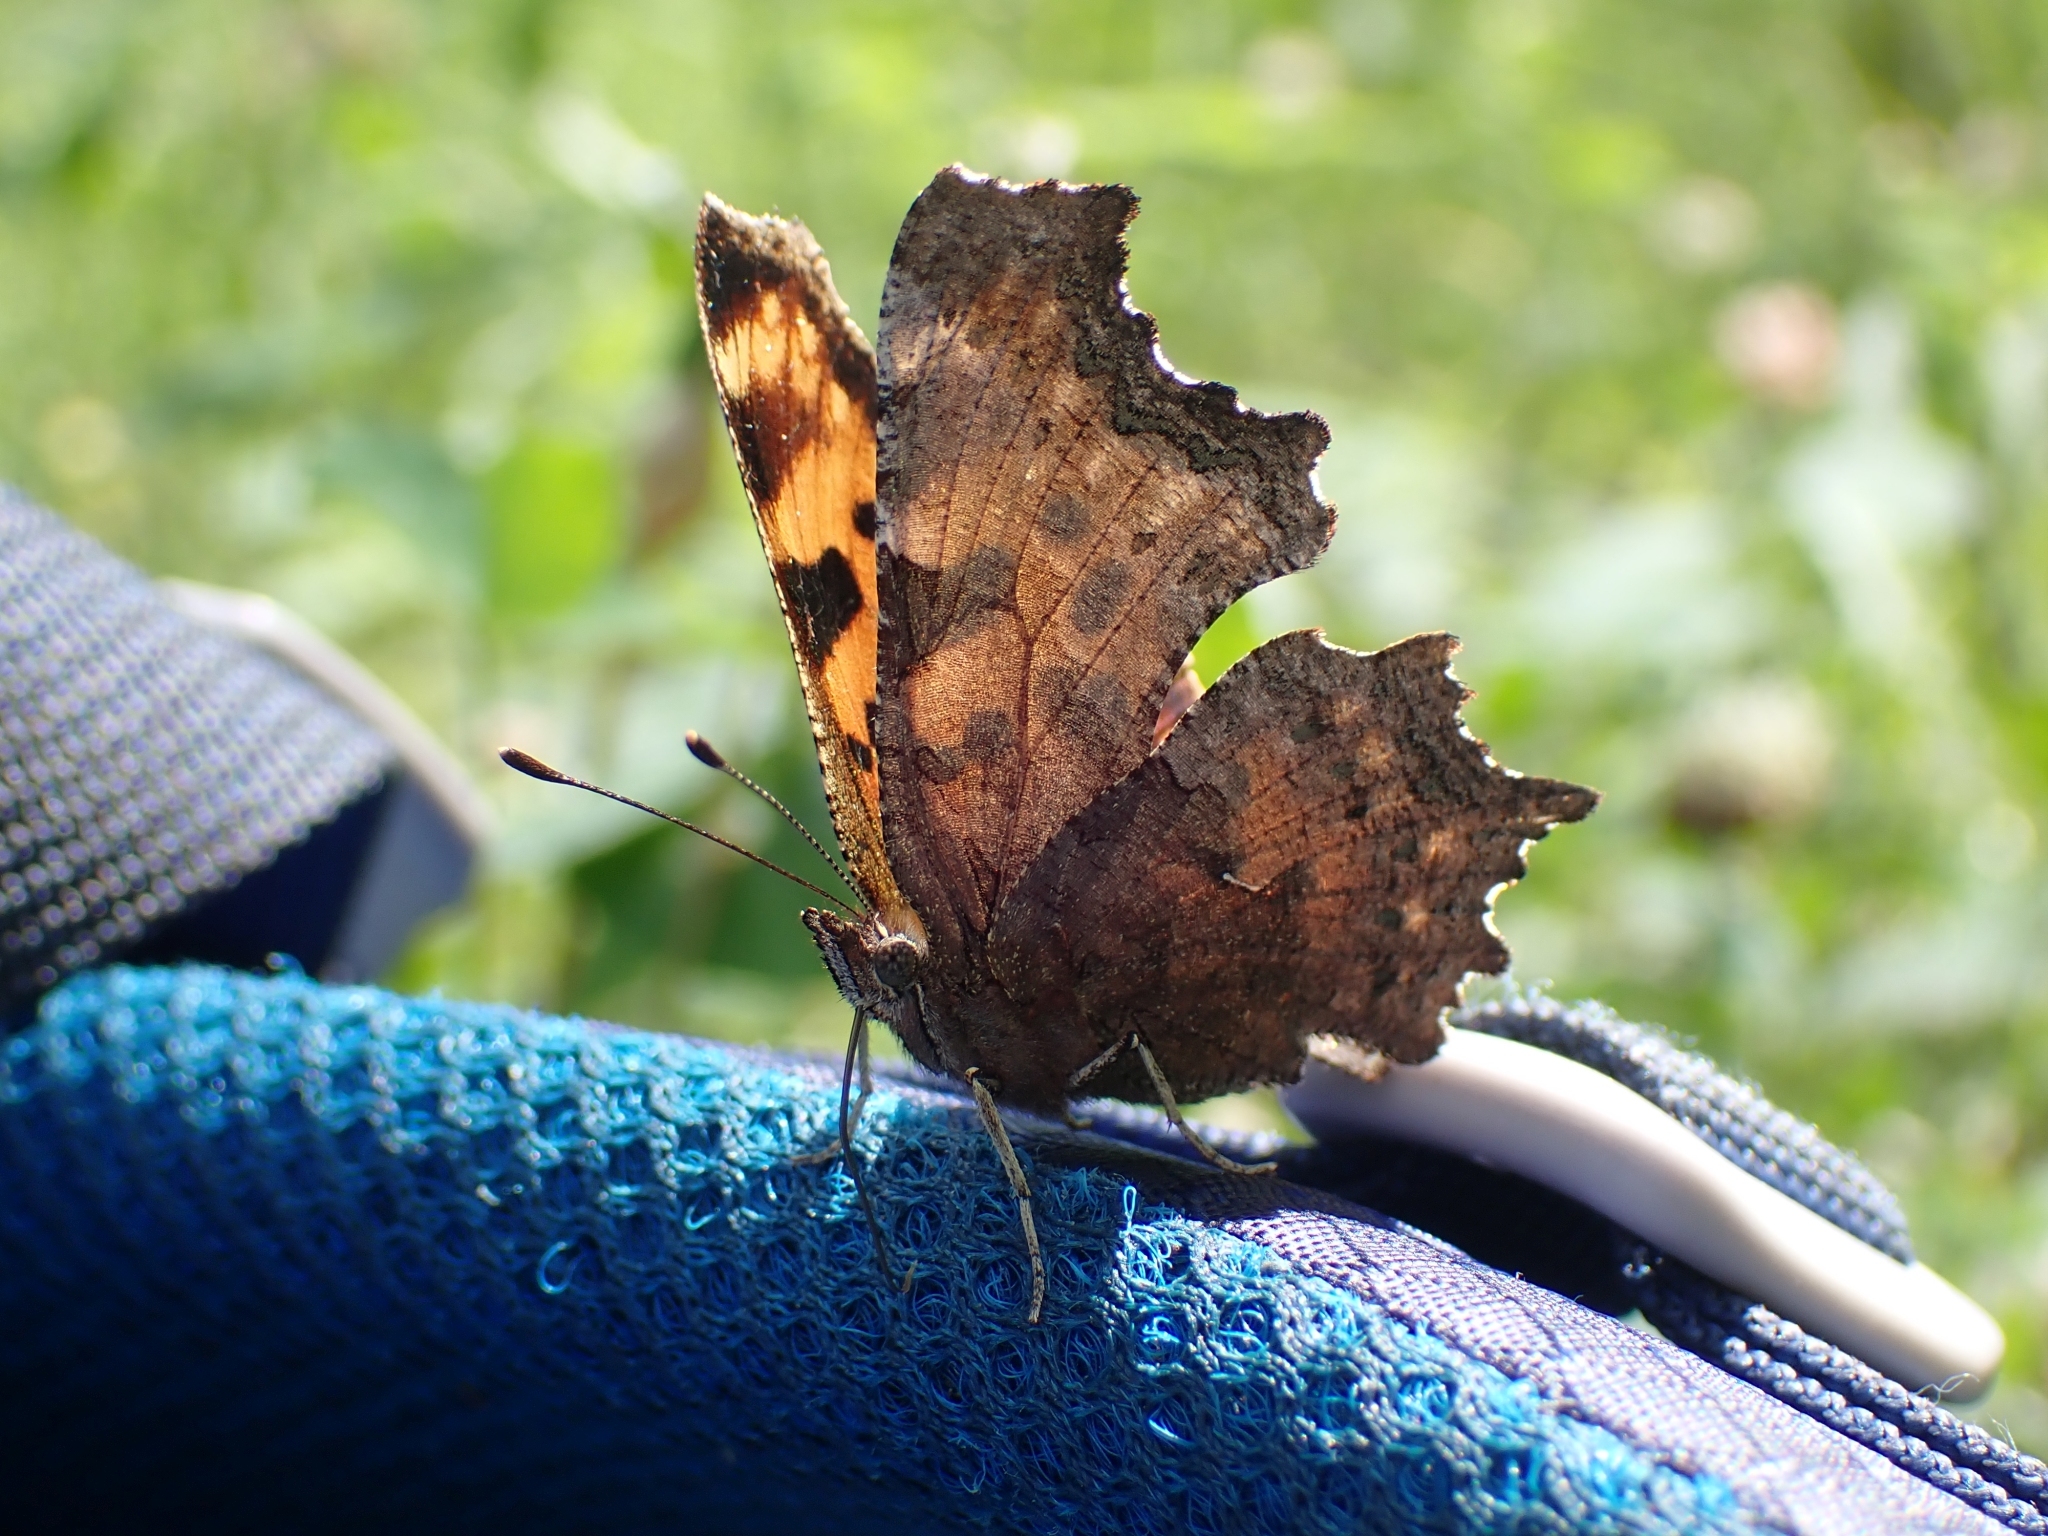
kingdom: Animalia
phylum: Arthropoda
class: Insecta
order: Lepidoptera
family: Nymphalidae
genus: Polygonia
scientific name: Polygonia faunus
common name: Green comma
